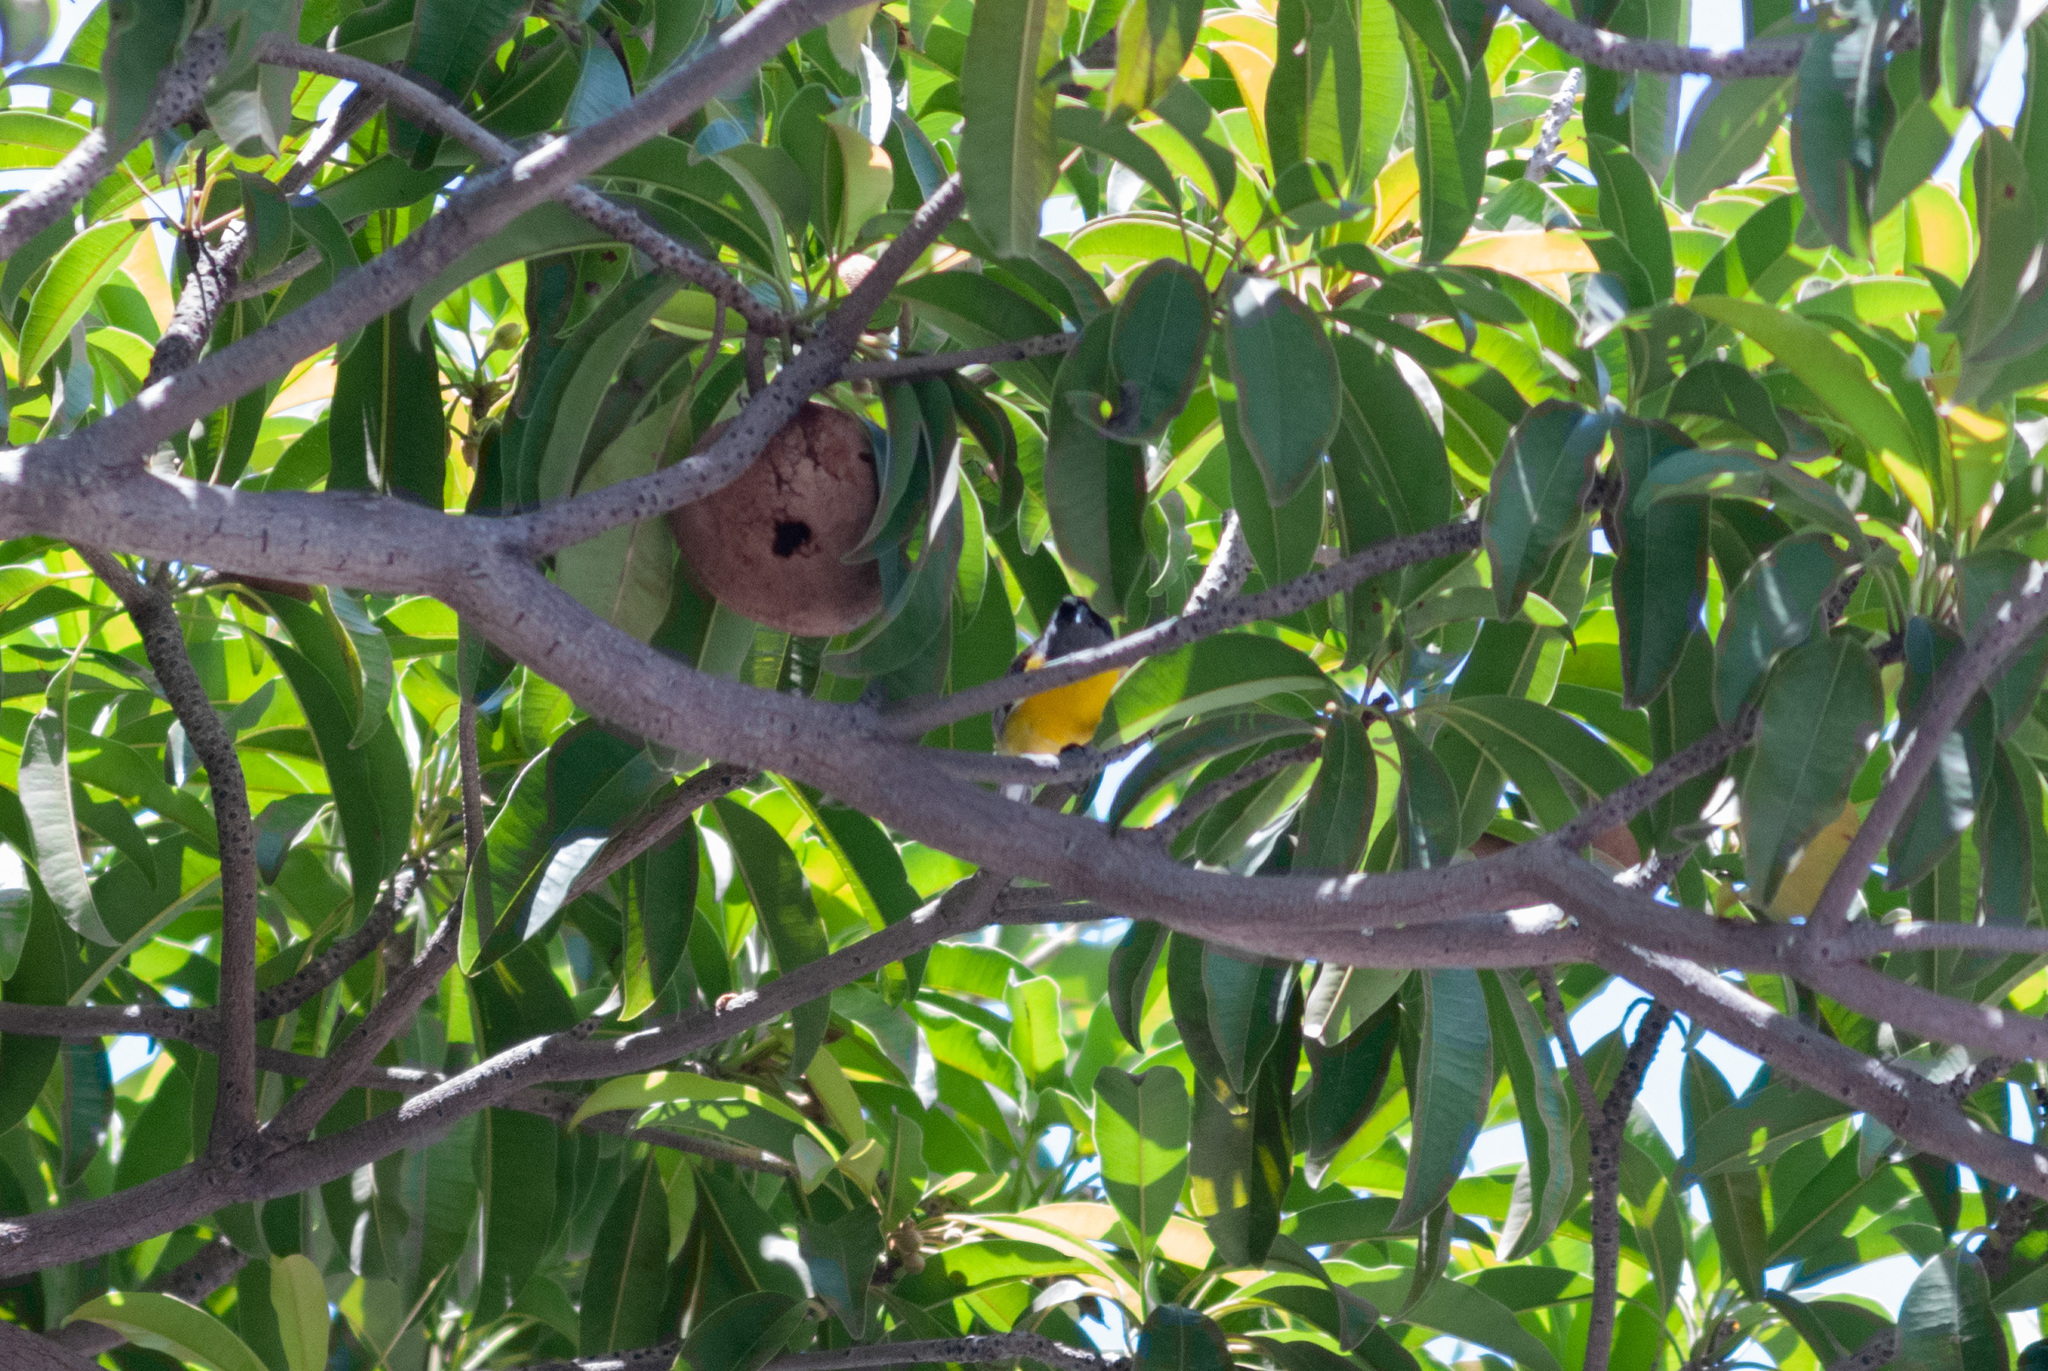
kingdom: Animalia
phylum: Chordata
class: Aves
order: Passeriformes
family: Thraupidae
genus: Coereba
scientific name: Coereba flaveola
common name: Bananaquit
